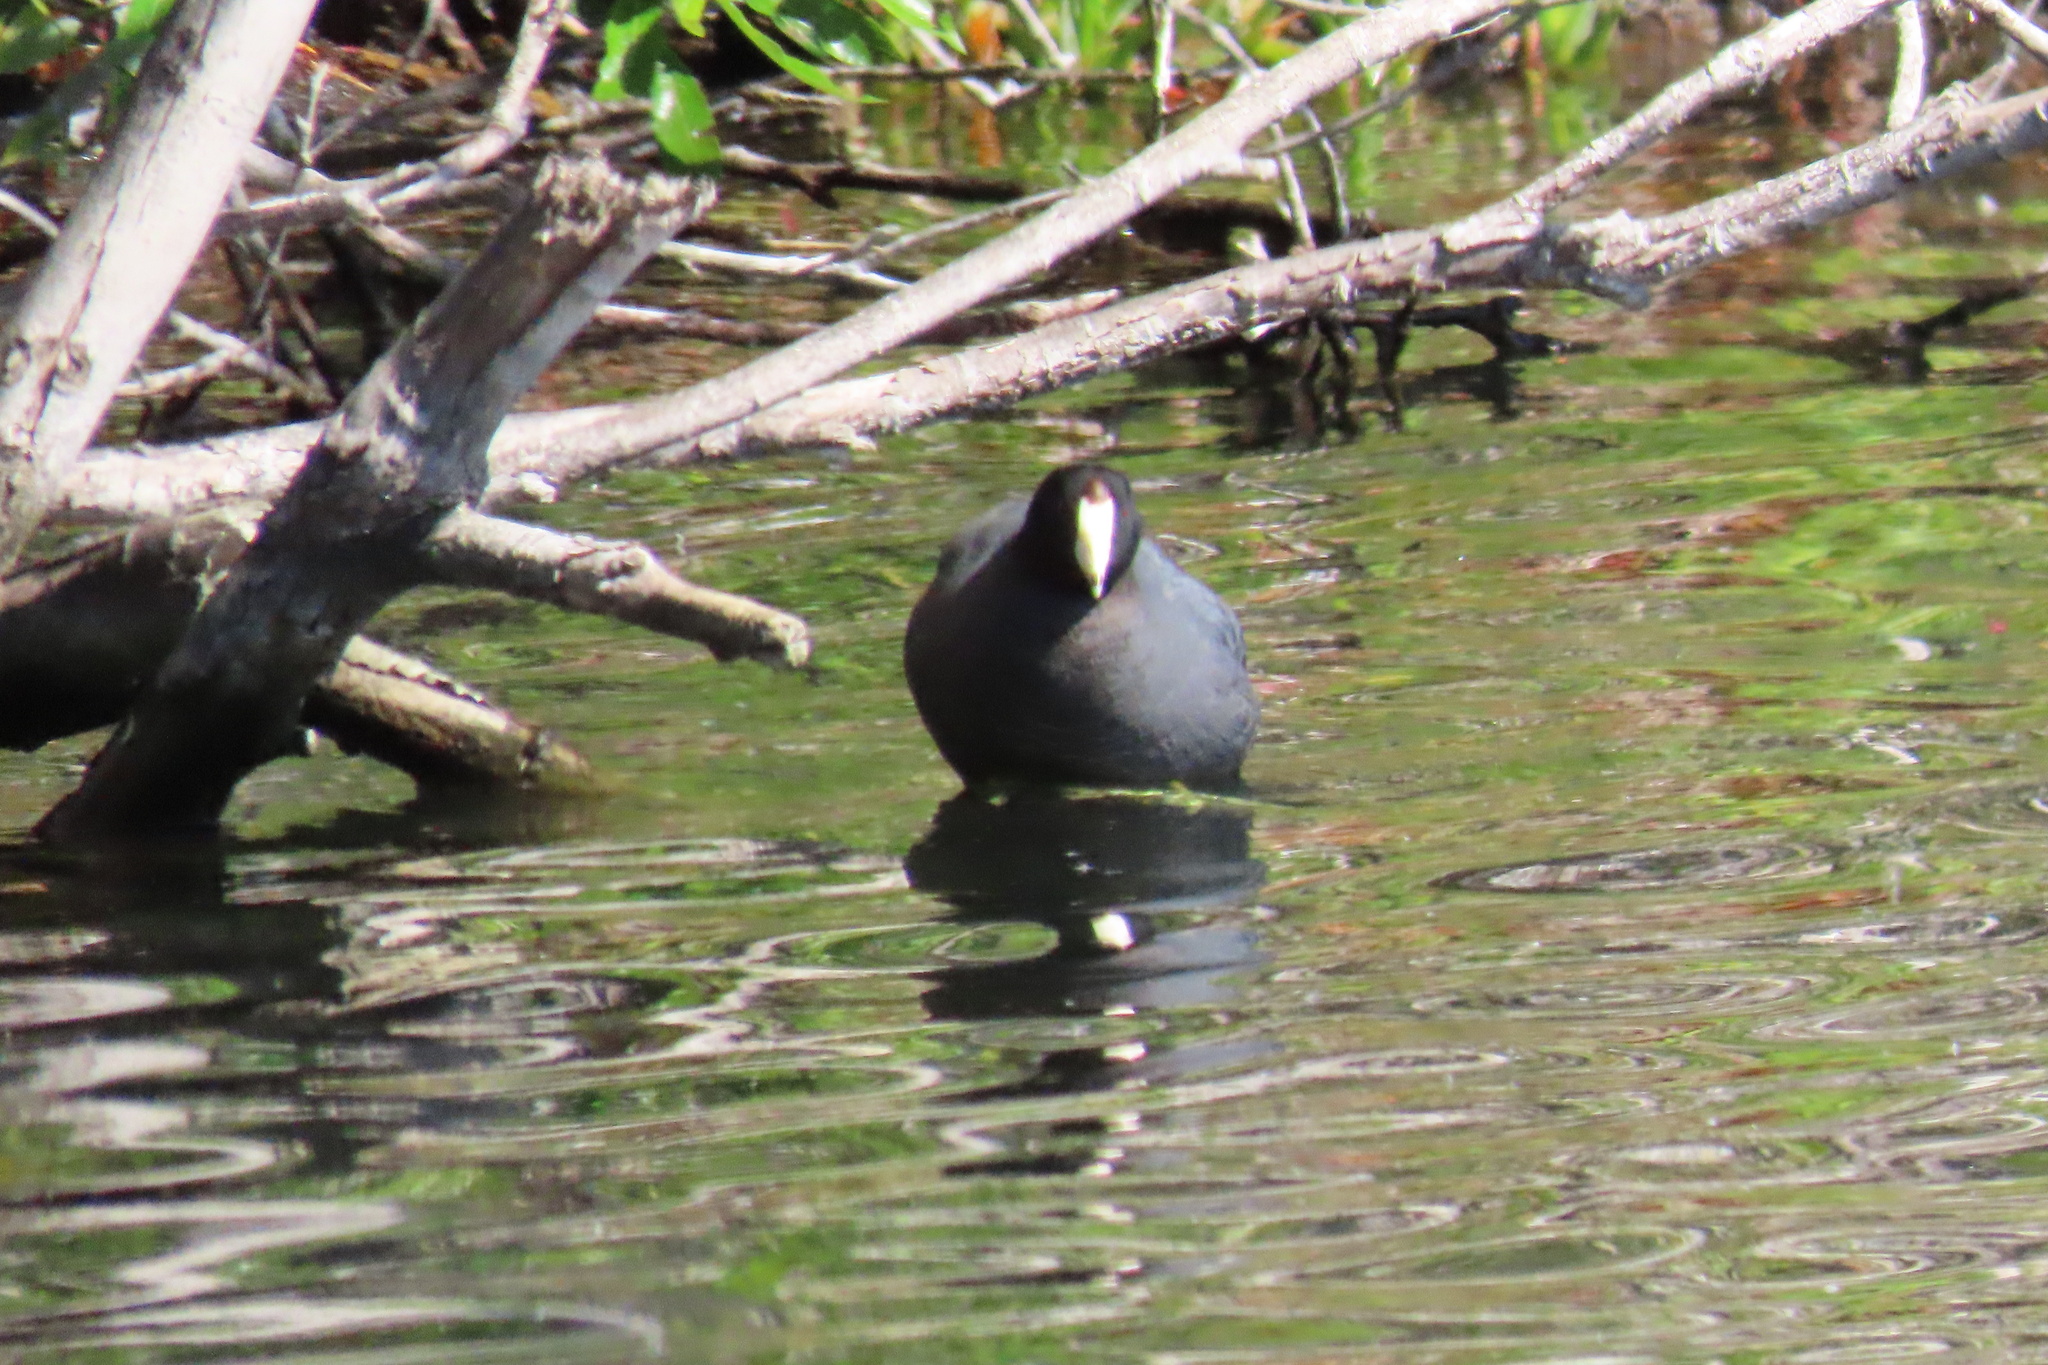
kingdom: Animalia
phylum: Chordata
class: Aves
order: Gruiformes
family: Rallidae
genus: Fulica
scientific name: Fulica americana
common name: American coot
